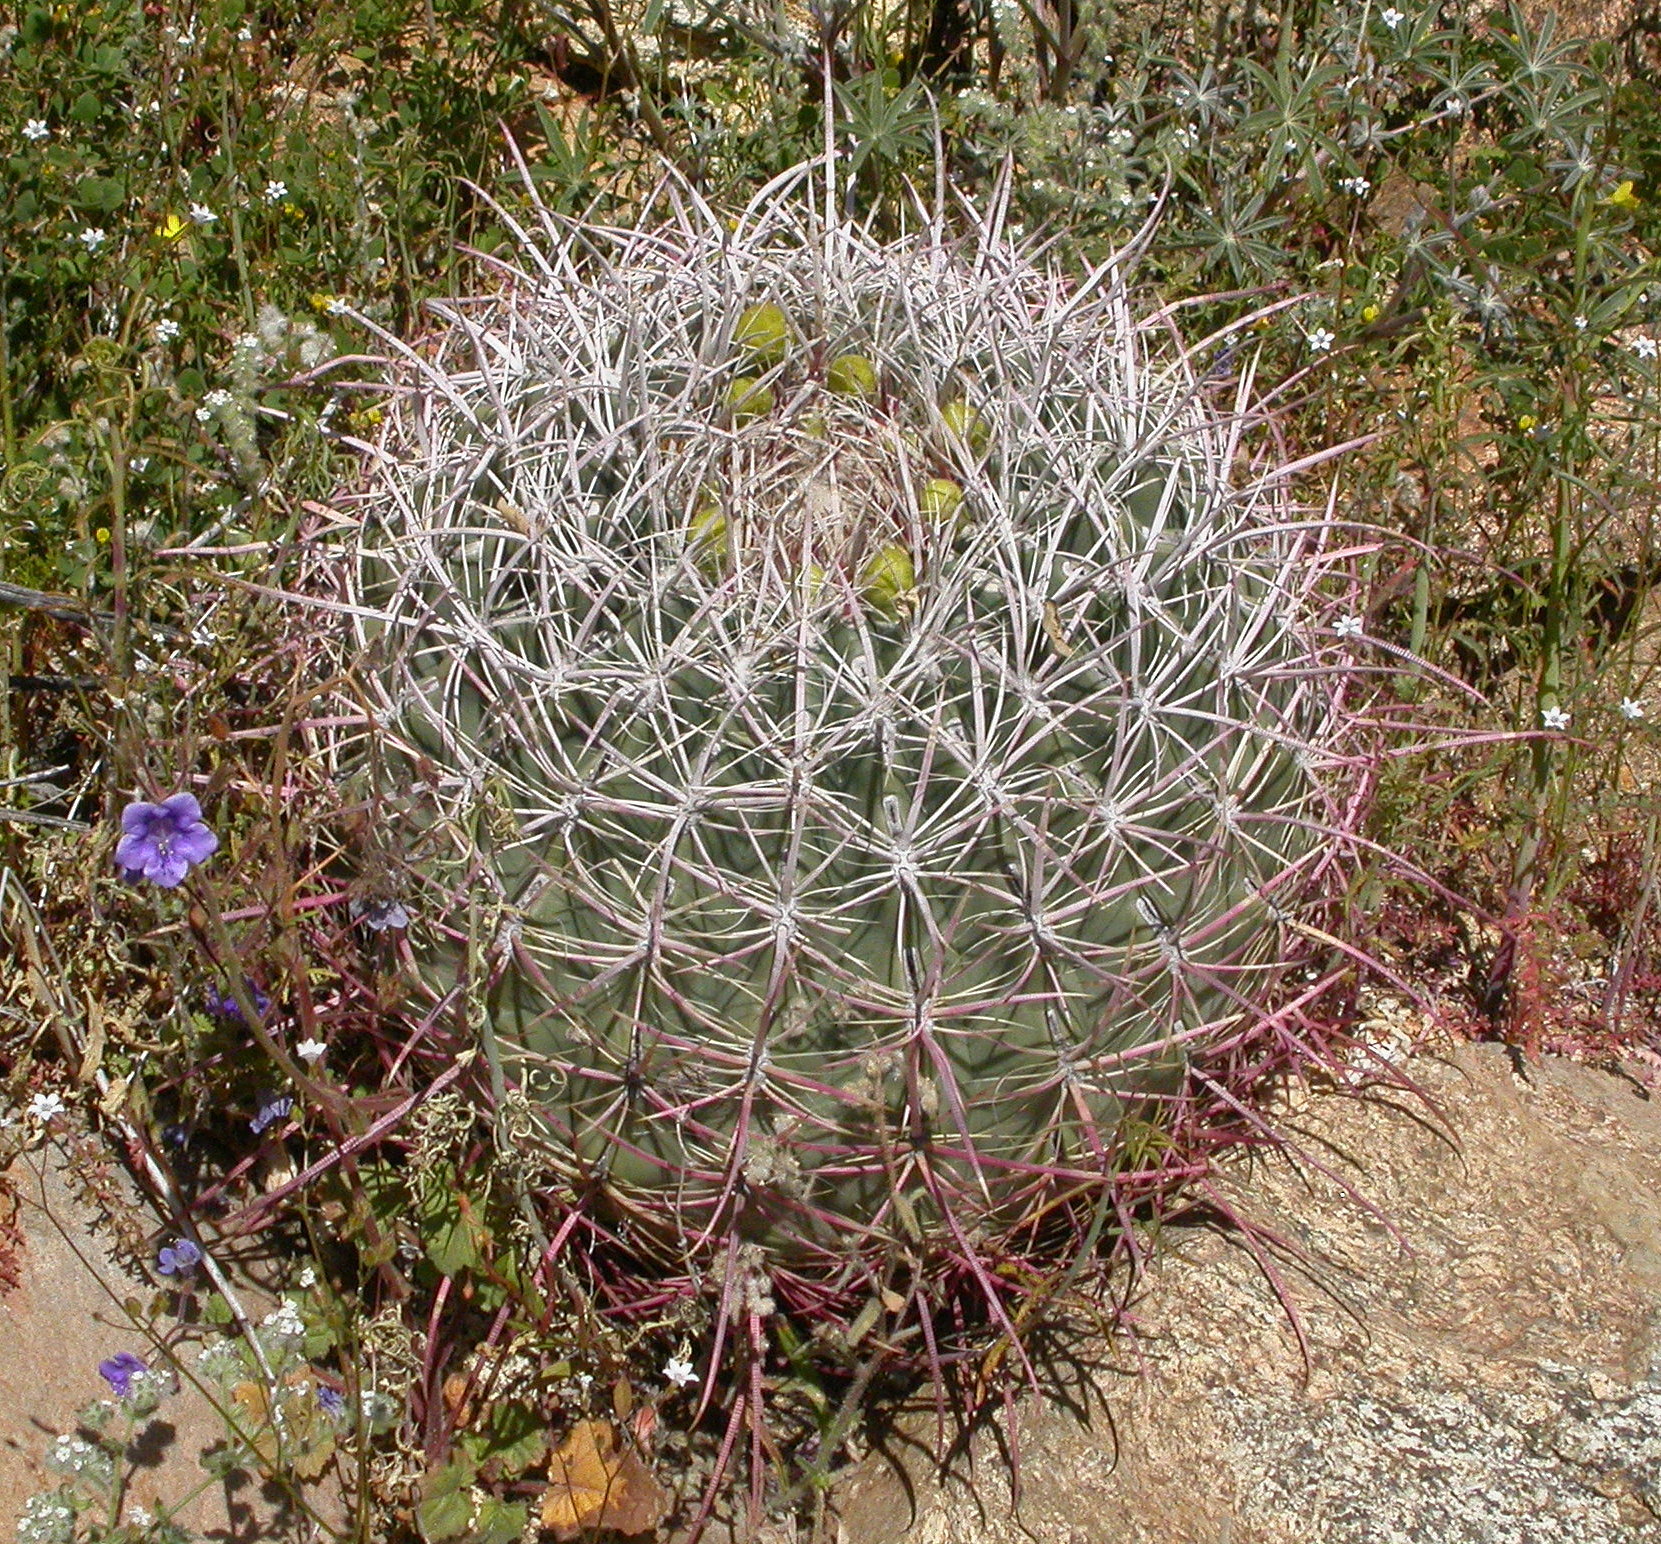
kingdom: Plantae
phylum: Tracheophyta
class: Magnoliopsida
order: Caryophyllales
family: Cactaceae
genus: Ferocactus
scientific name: Ferocactus cylindraceus
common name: California barrel cactus
